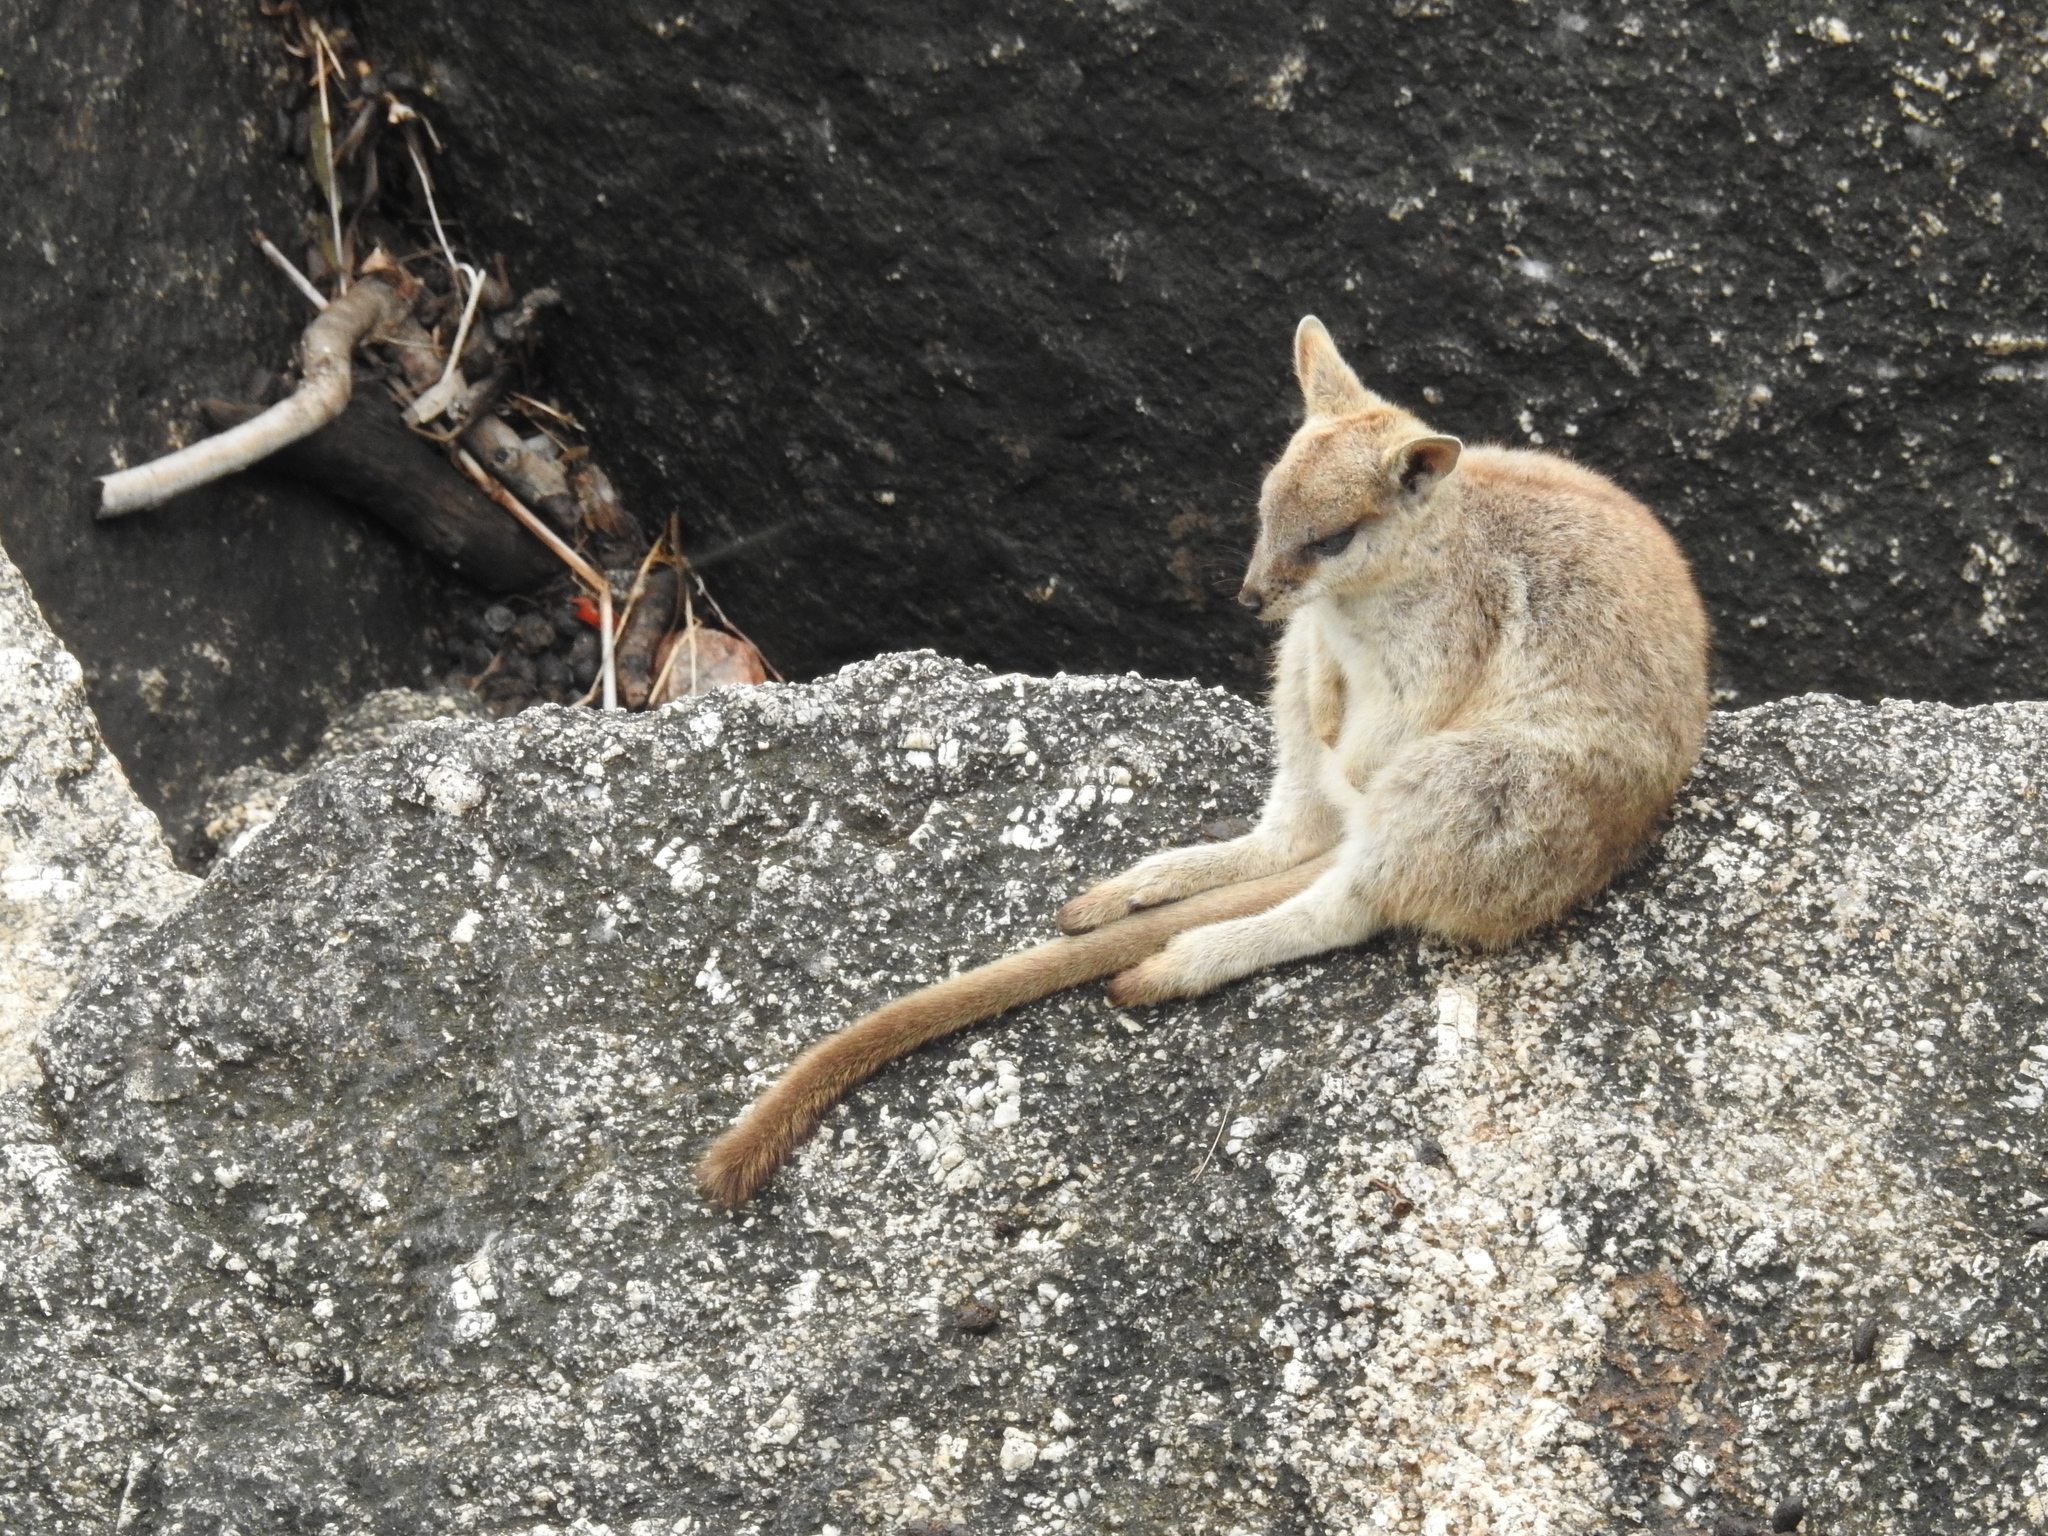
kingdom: Animalia
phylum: Chordata
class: Mammalia
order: Diprotodontia
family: Macropodidae
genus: Petrogale
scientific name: Petrogale mareeba
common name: Mareeba rock-wallaby
